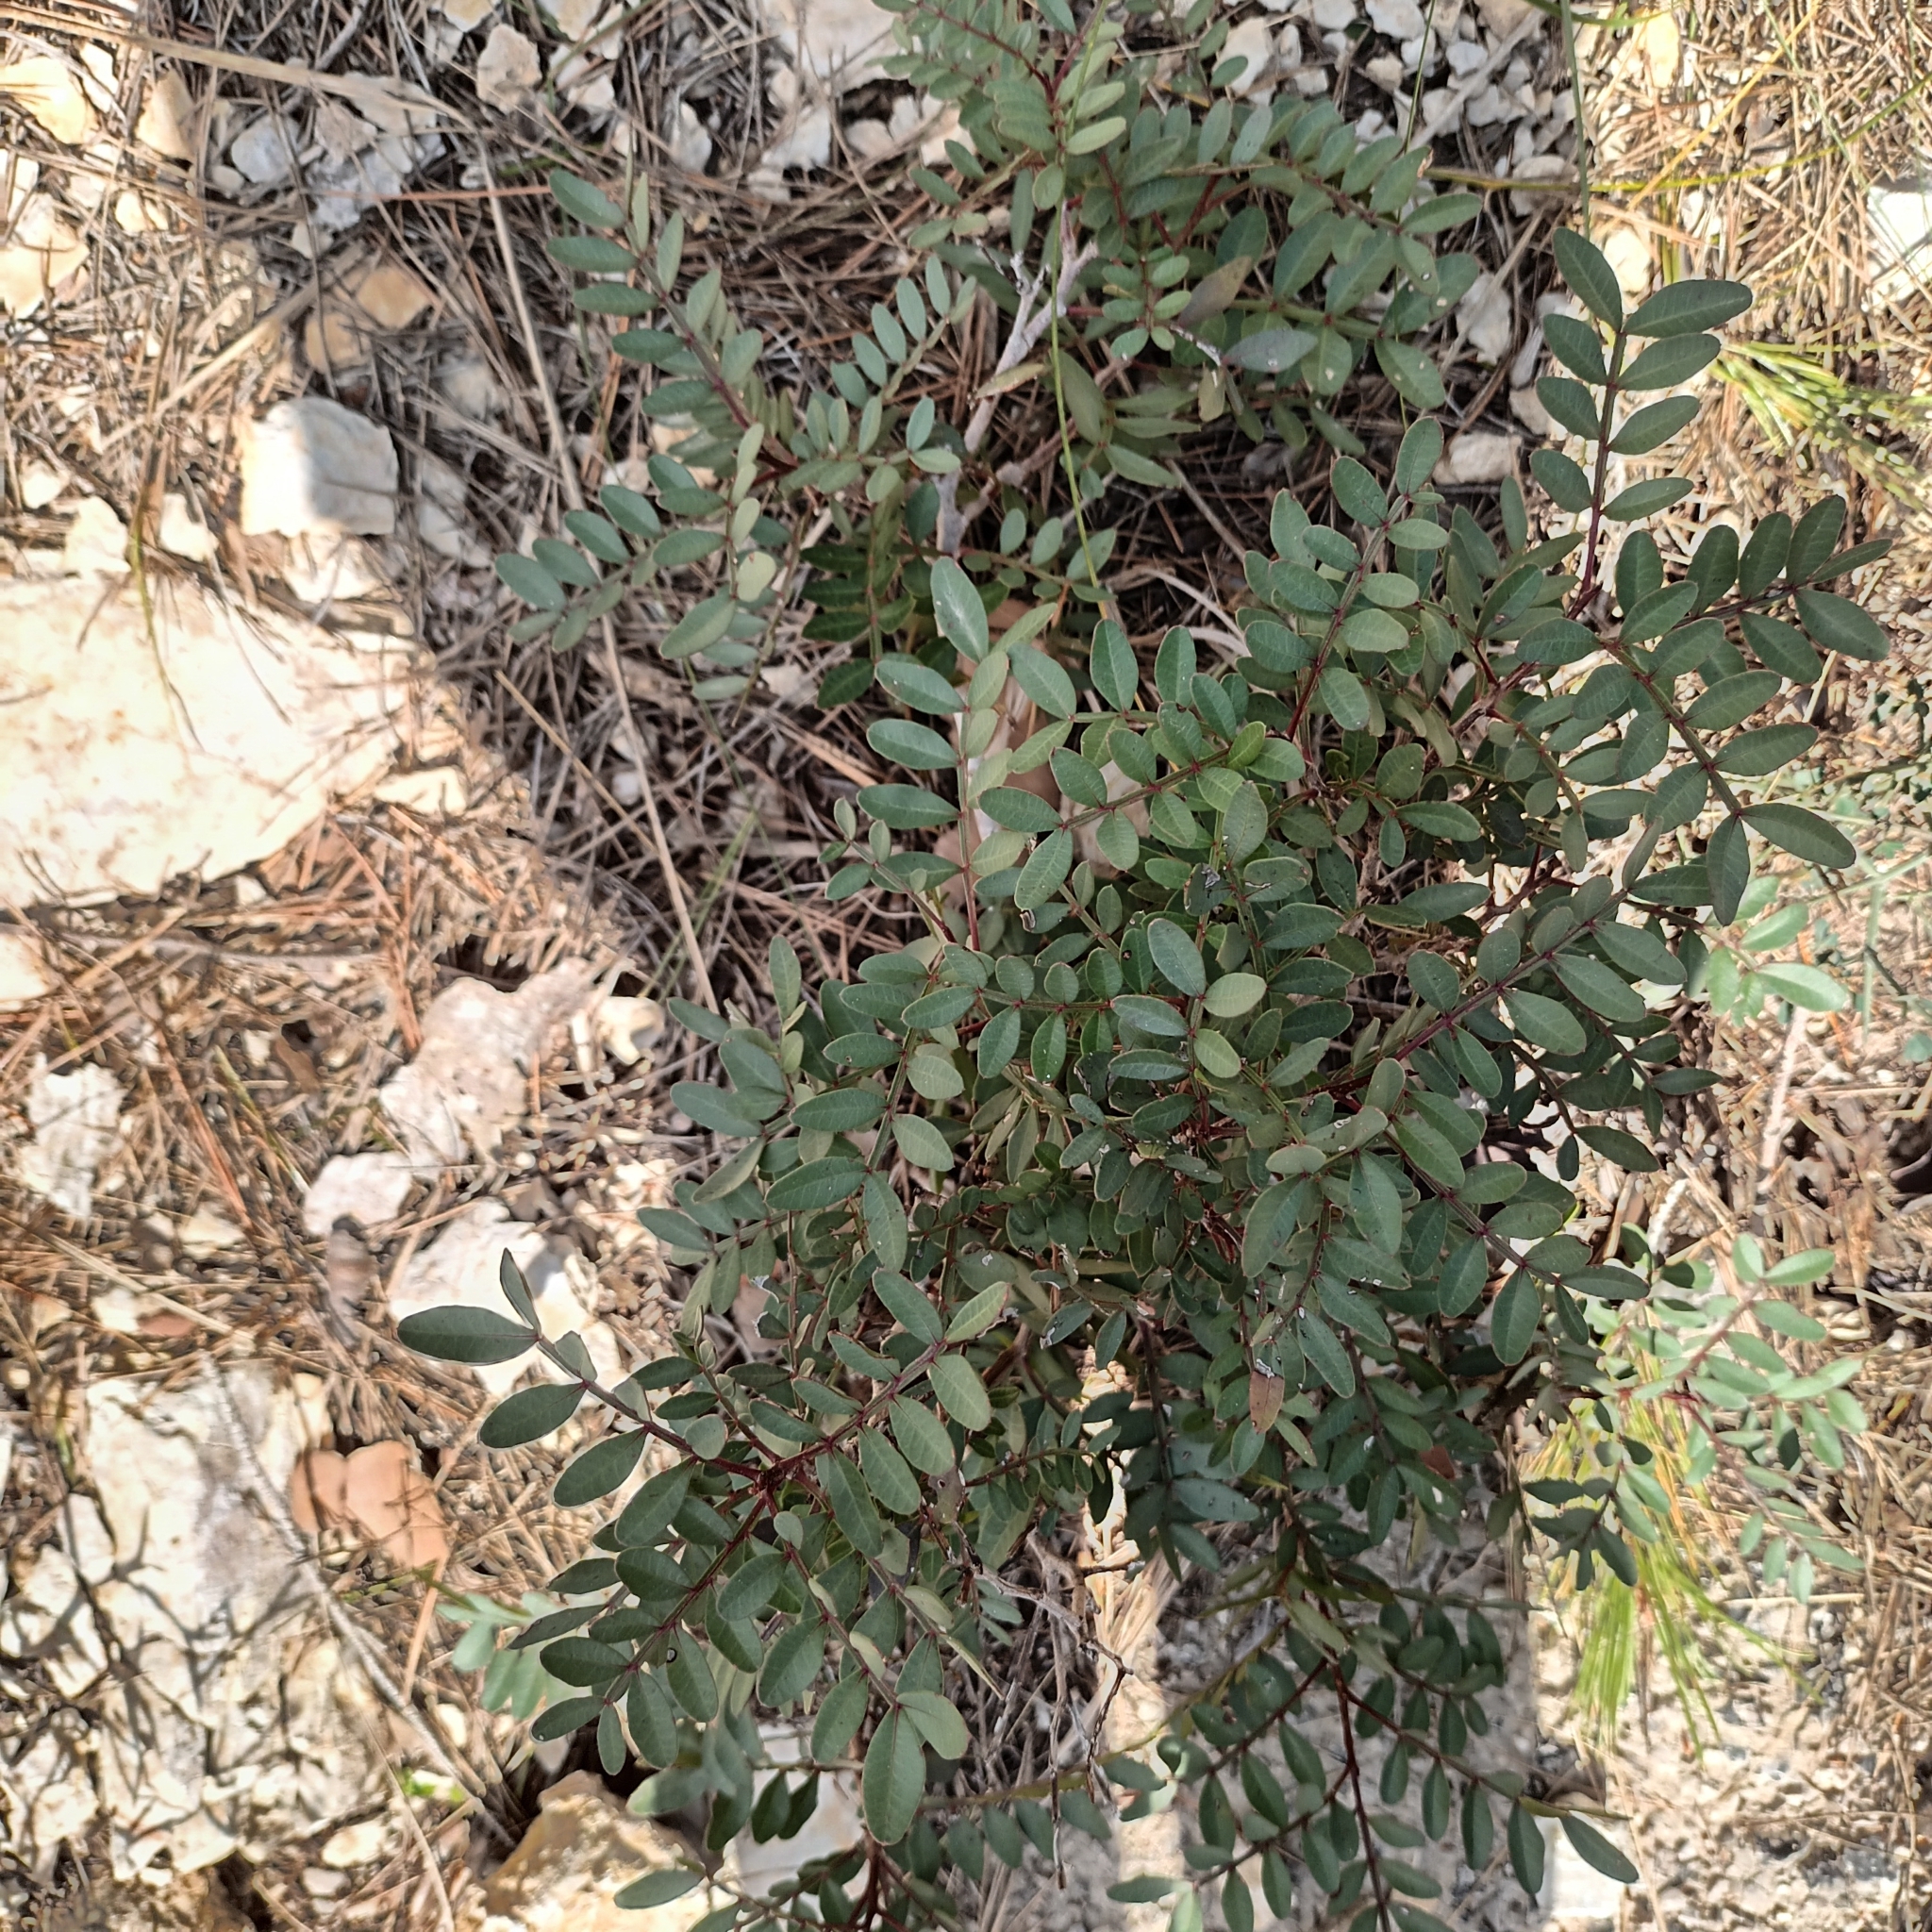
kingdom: Plantae
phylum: Tracheophyta
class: Magnoliopsida
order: Sapindales
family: Anacardiaceae
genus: Pistacia
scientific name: Pistacia lentiscus
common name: Lentisk
